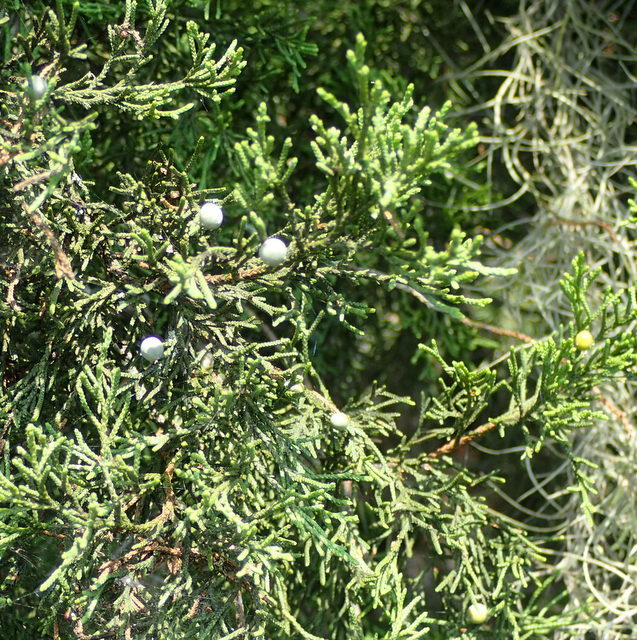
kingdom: Plantae
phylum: Tracheophyta
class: Pinopsida
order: Pinales
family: Cupressaceae
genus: Juniperus
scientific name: Juniperus virginiana
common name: Red juniper
